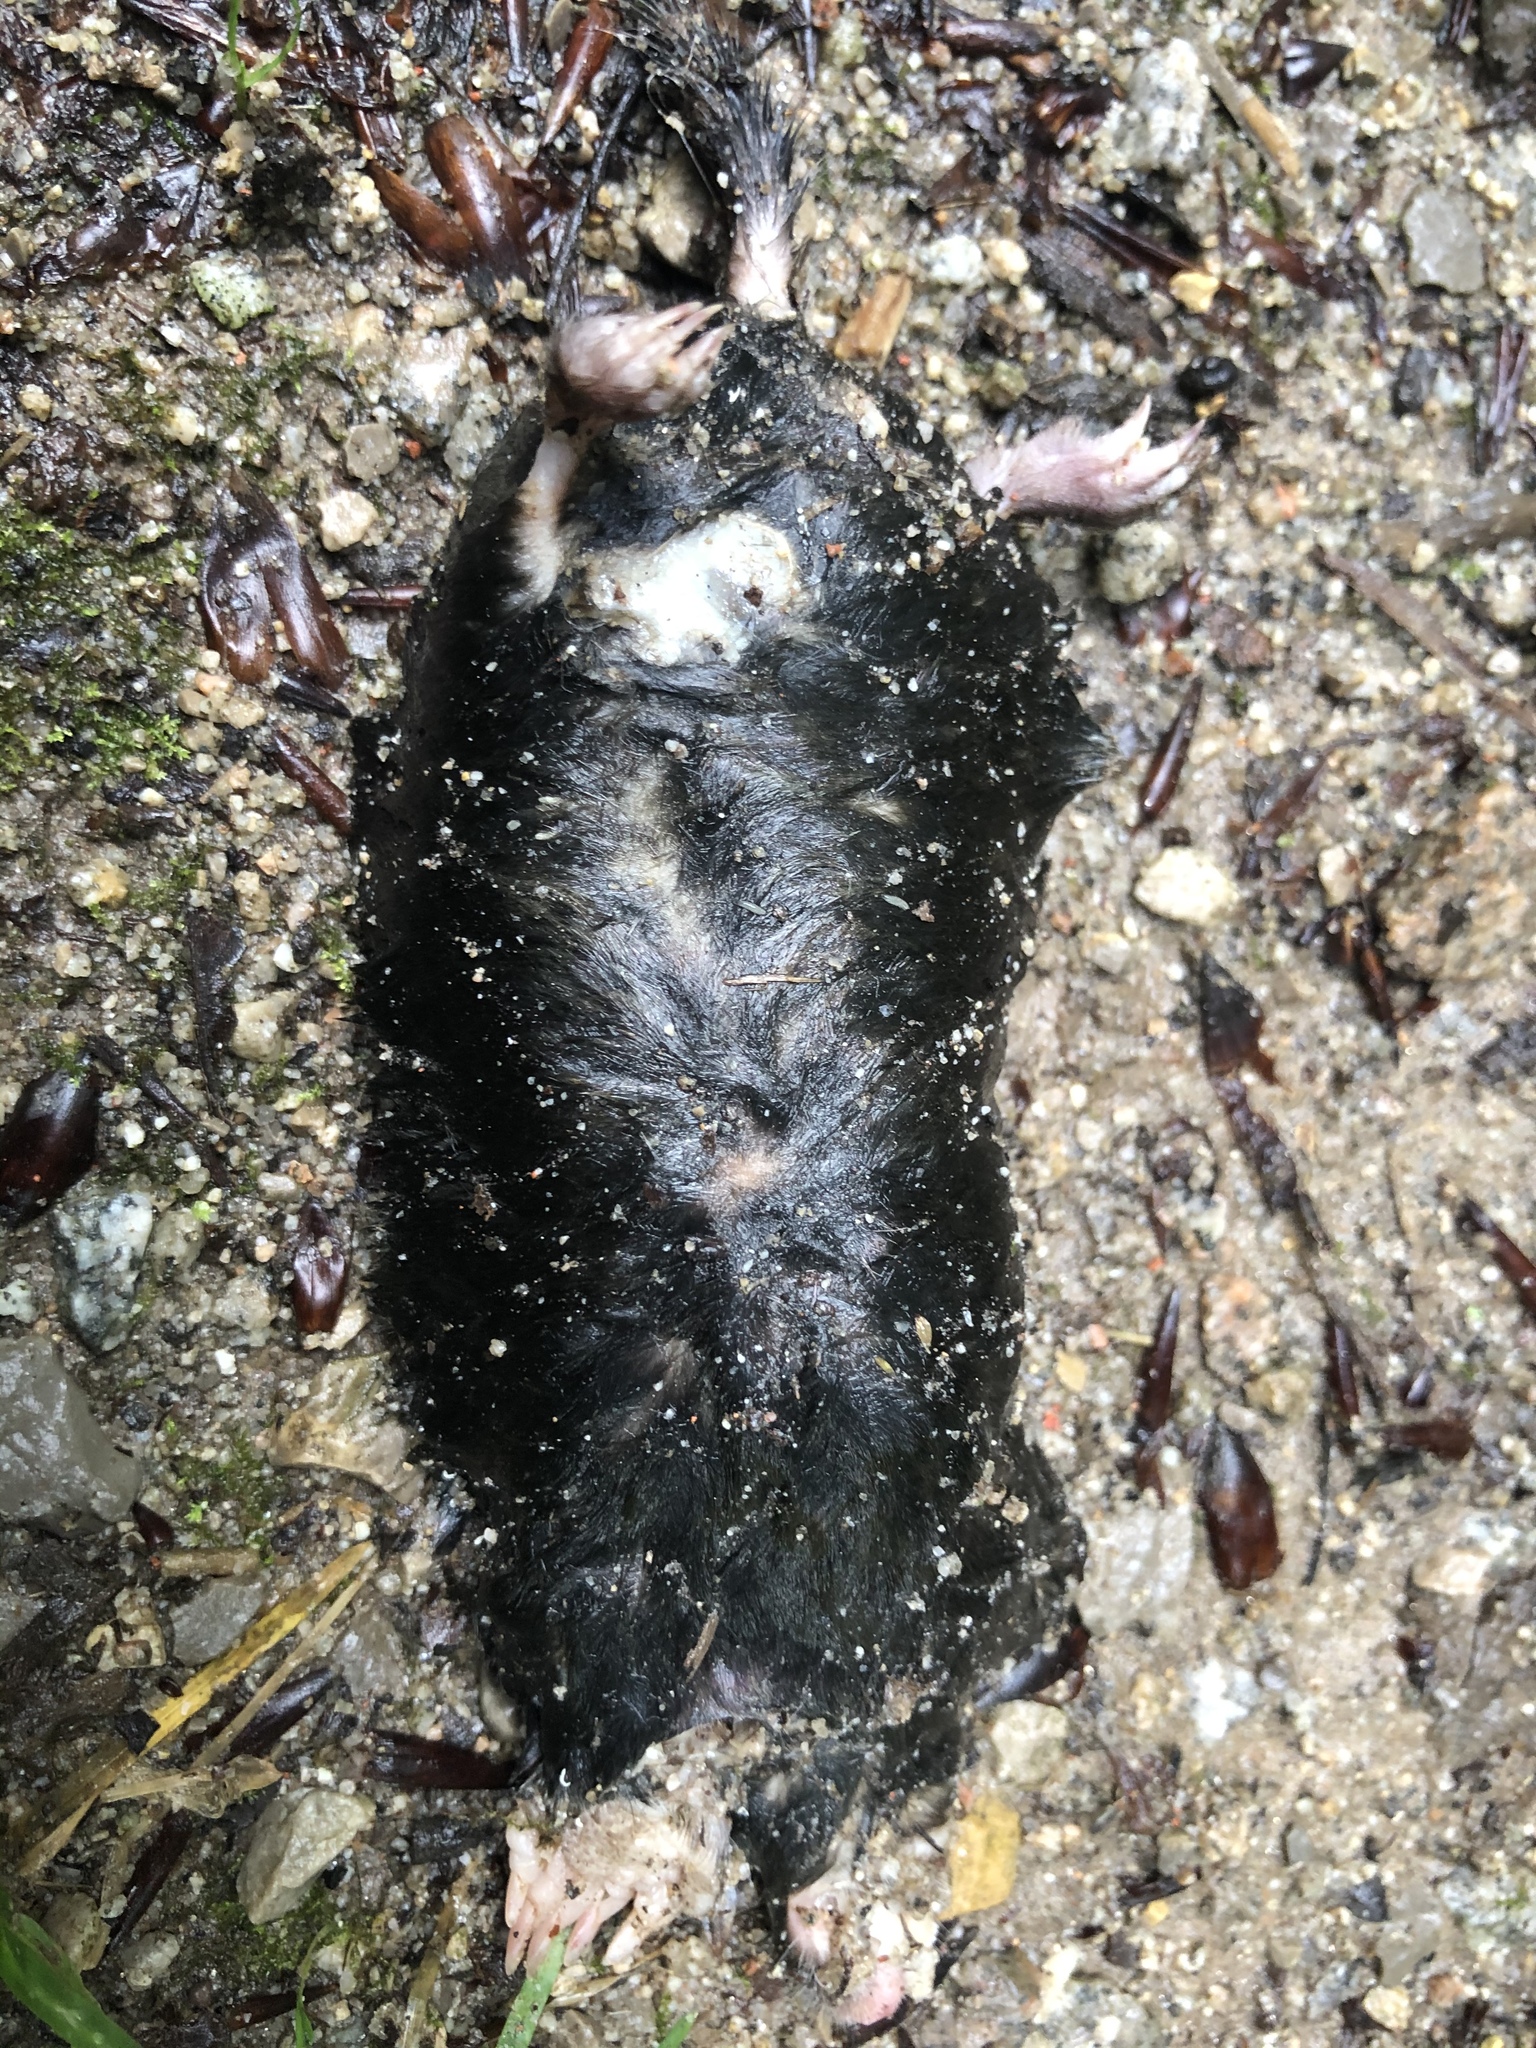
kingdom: Animalia
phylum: Chordata
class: Mammalia
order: Soricomorpha
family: Talpidae
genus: Talpa
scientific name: Talpa europaea
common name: European mole
